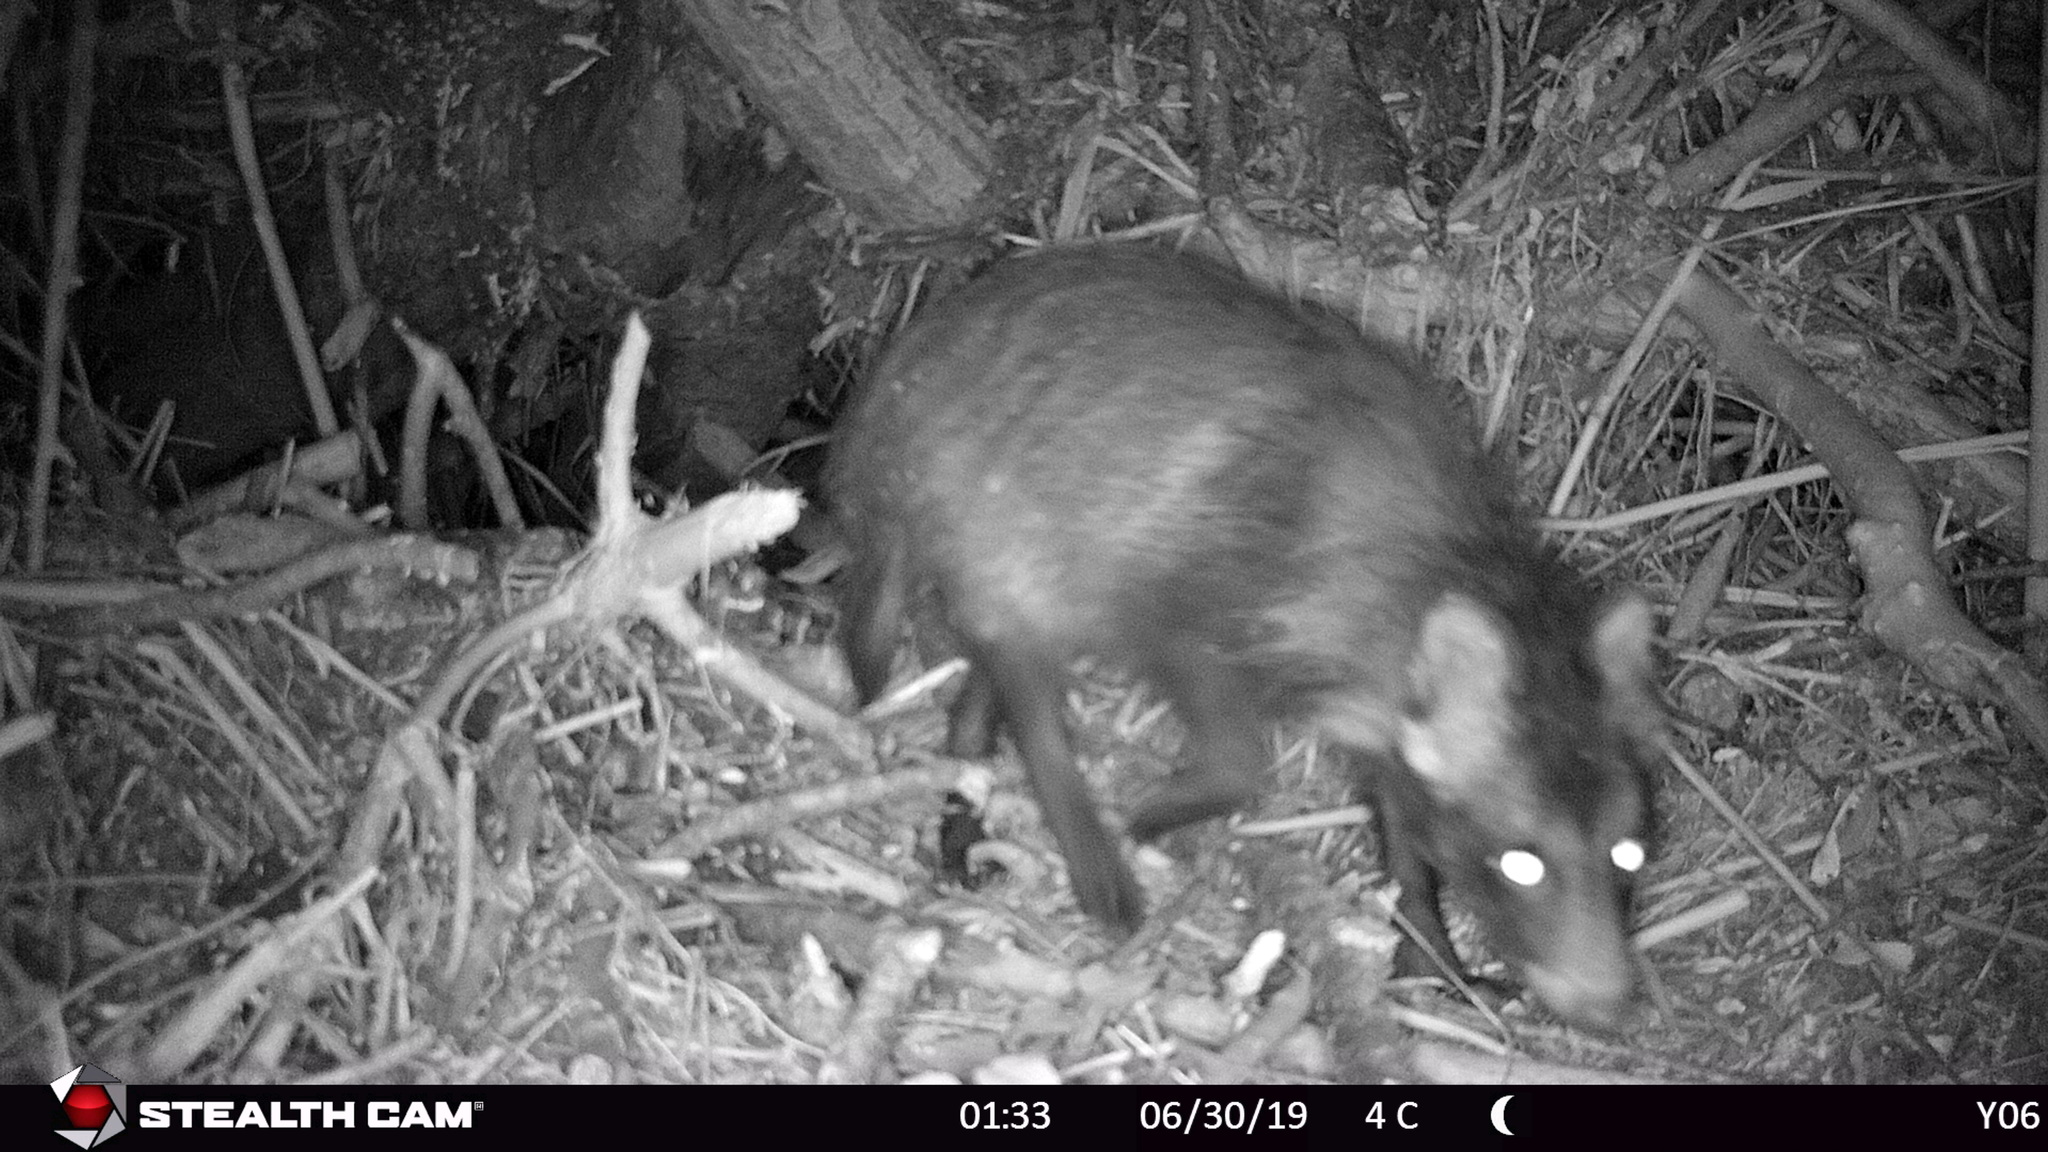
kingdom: Animalia
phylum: Chordata
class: Mammalia
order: Carnivora
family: Canidae
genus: Nyctereutes
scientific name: Nyctereutes procyonoides
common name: Raccoon dog
